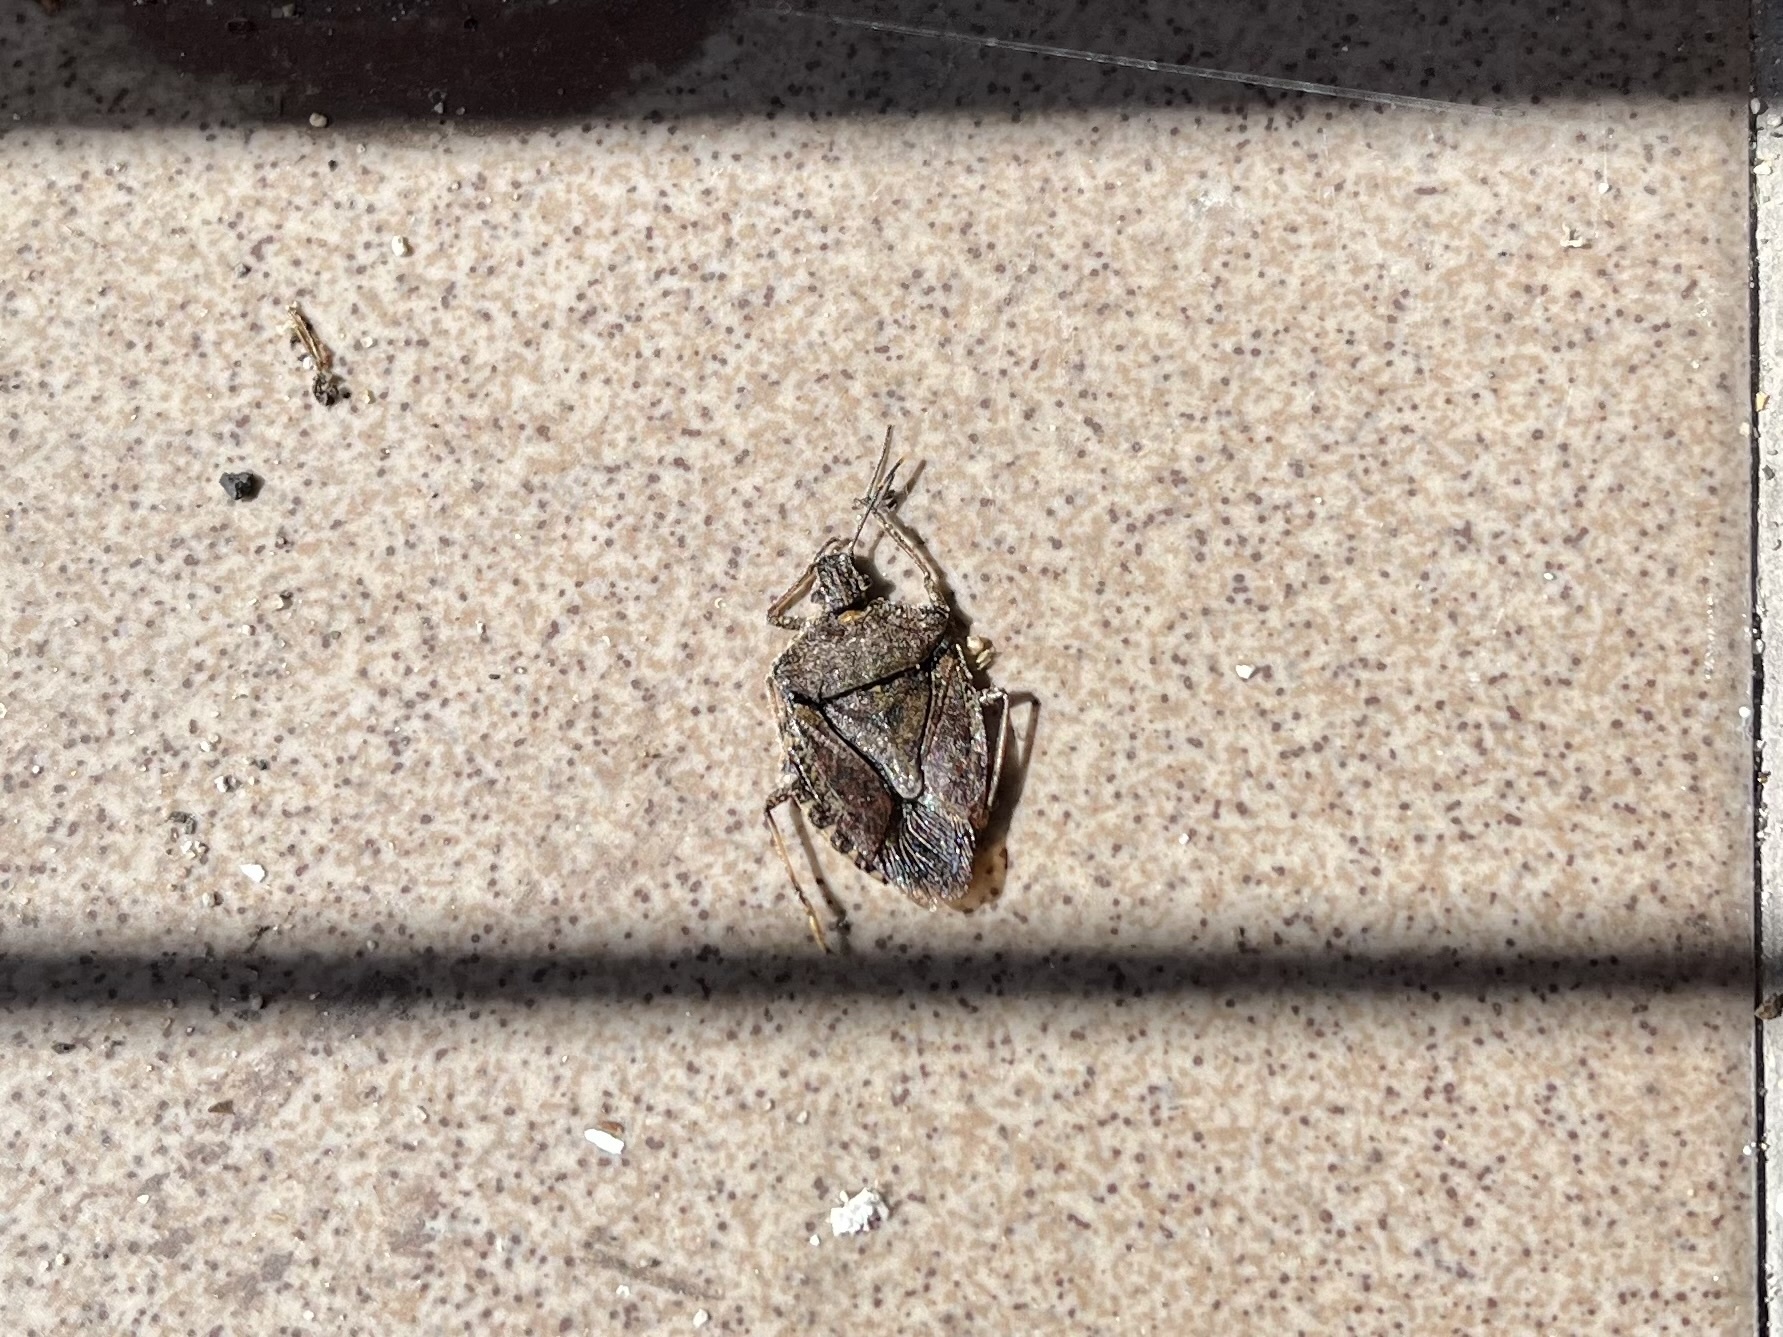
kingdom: Animalia
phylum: Arthropoda
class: Insecta
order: Hemiptera
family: Pentatomidae
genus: Halyomorpha
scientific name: Halyomorpha halys
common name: Brown marmorated stink bug
